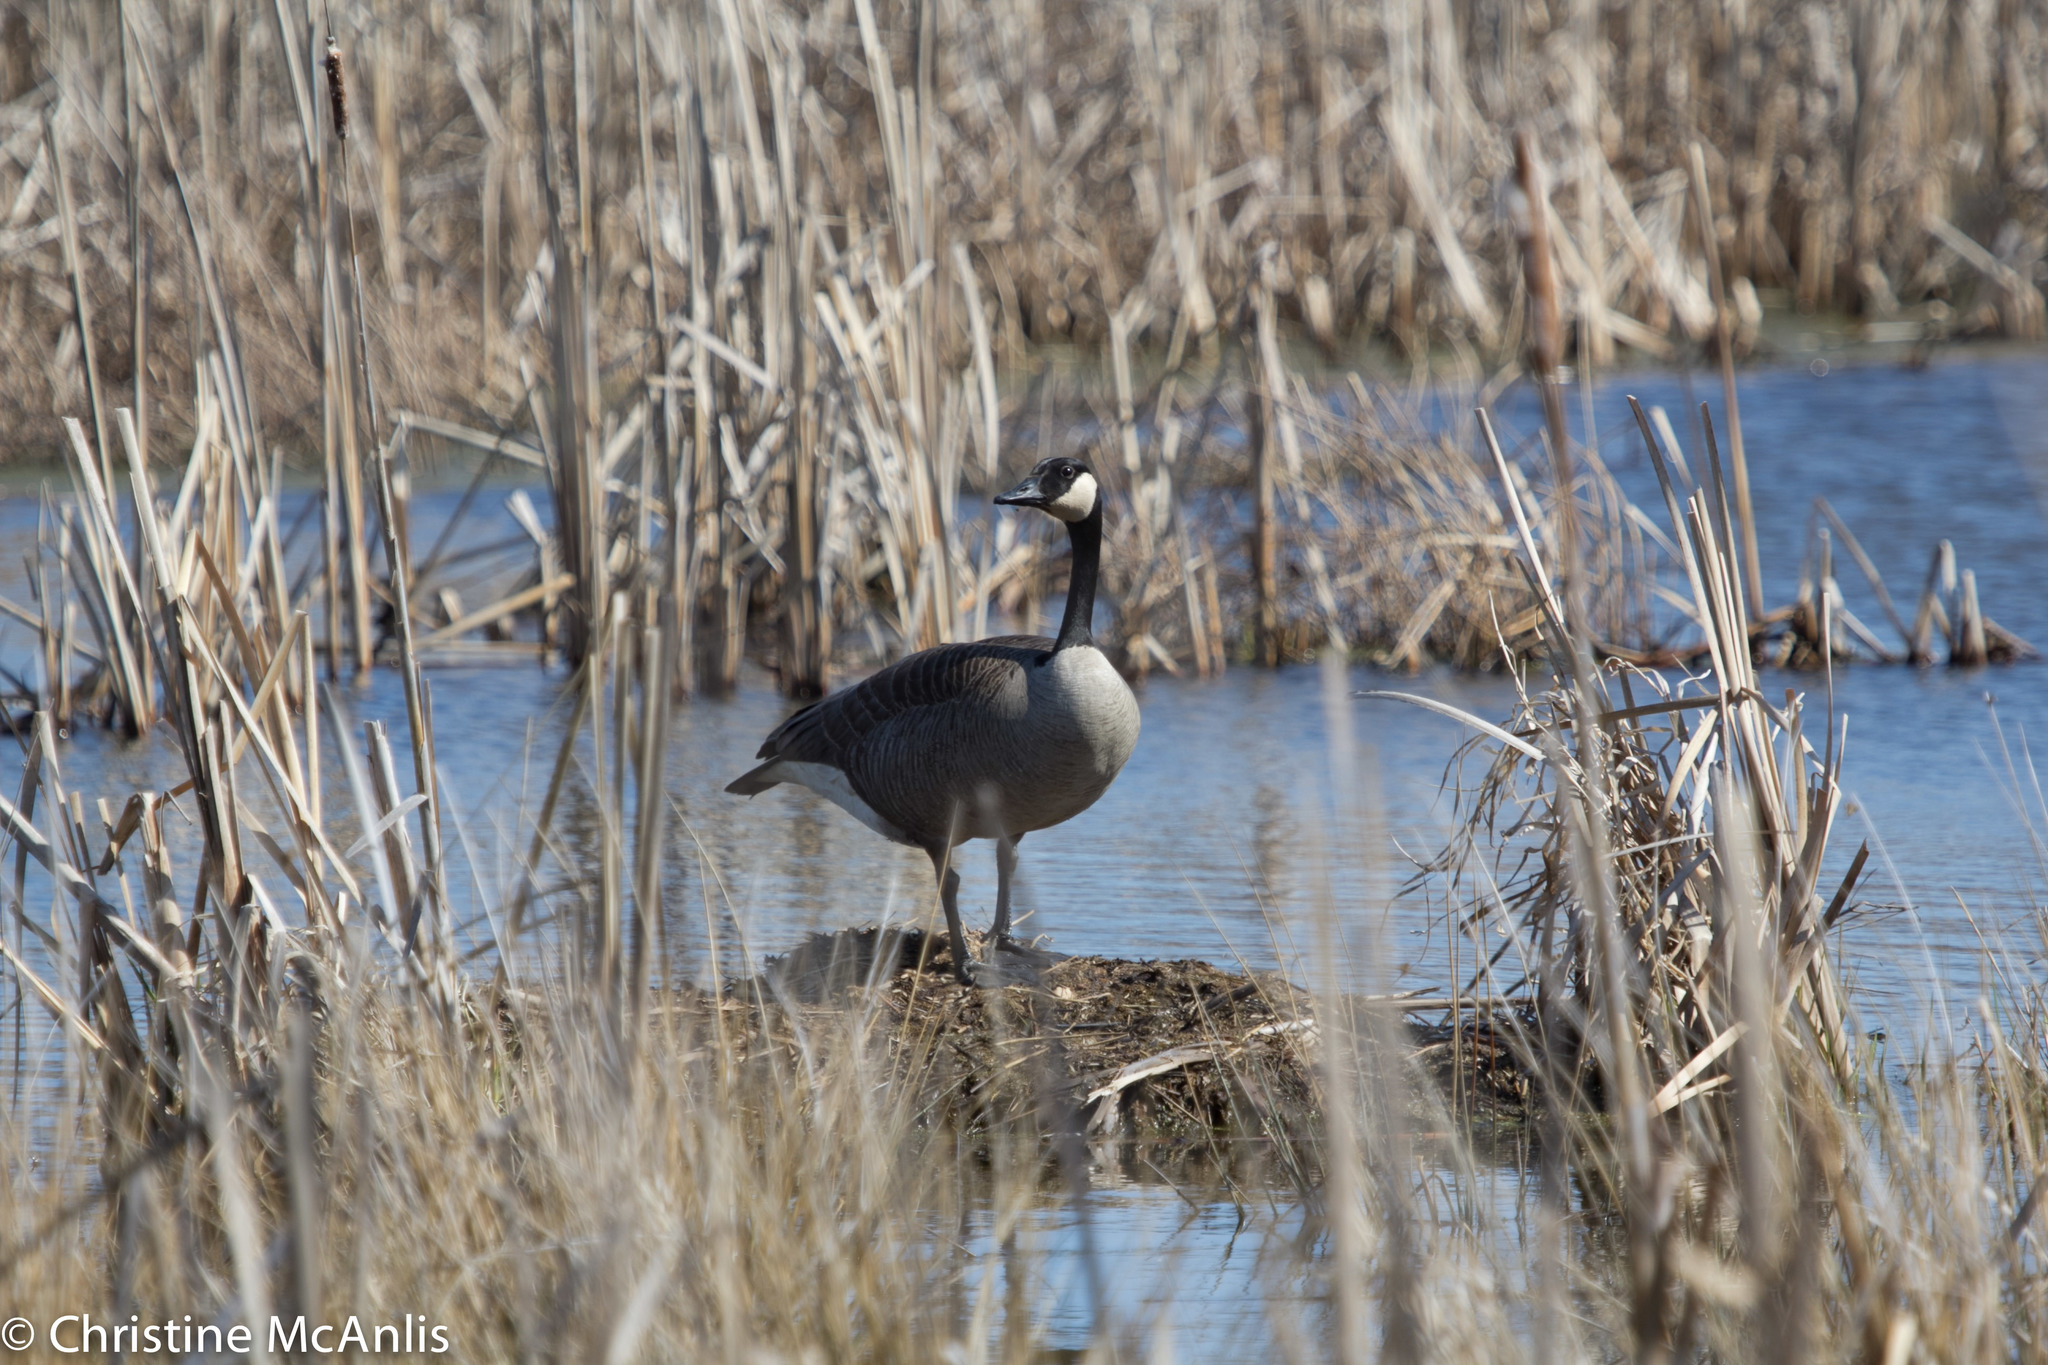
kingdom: Animalia
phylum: Chordata
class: Aves
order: Anseriformes
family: Anatidae
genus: Branta
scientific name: Branta canadensis
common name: Canada goose
